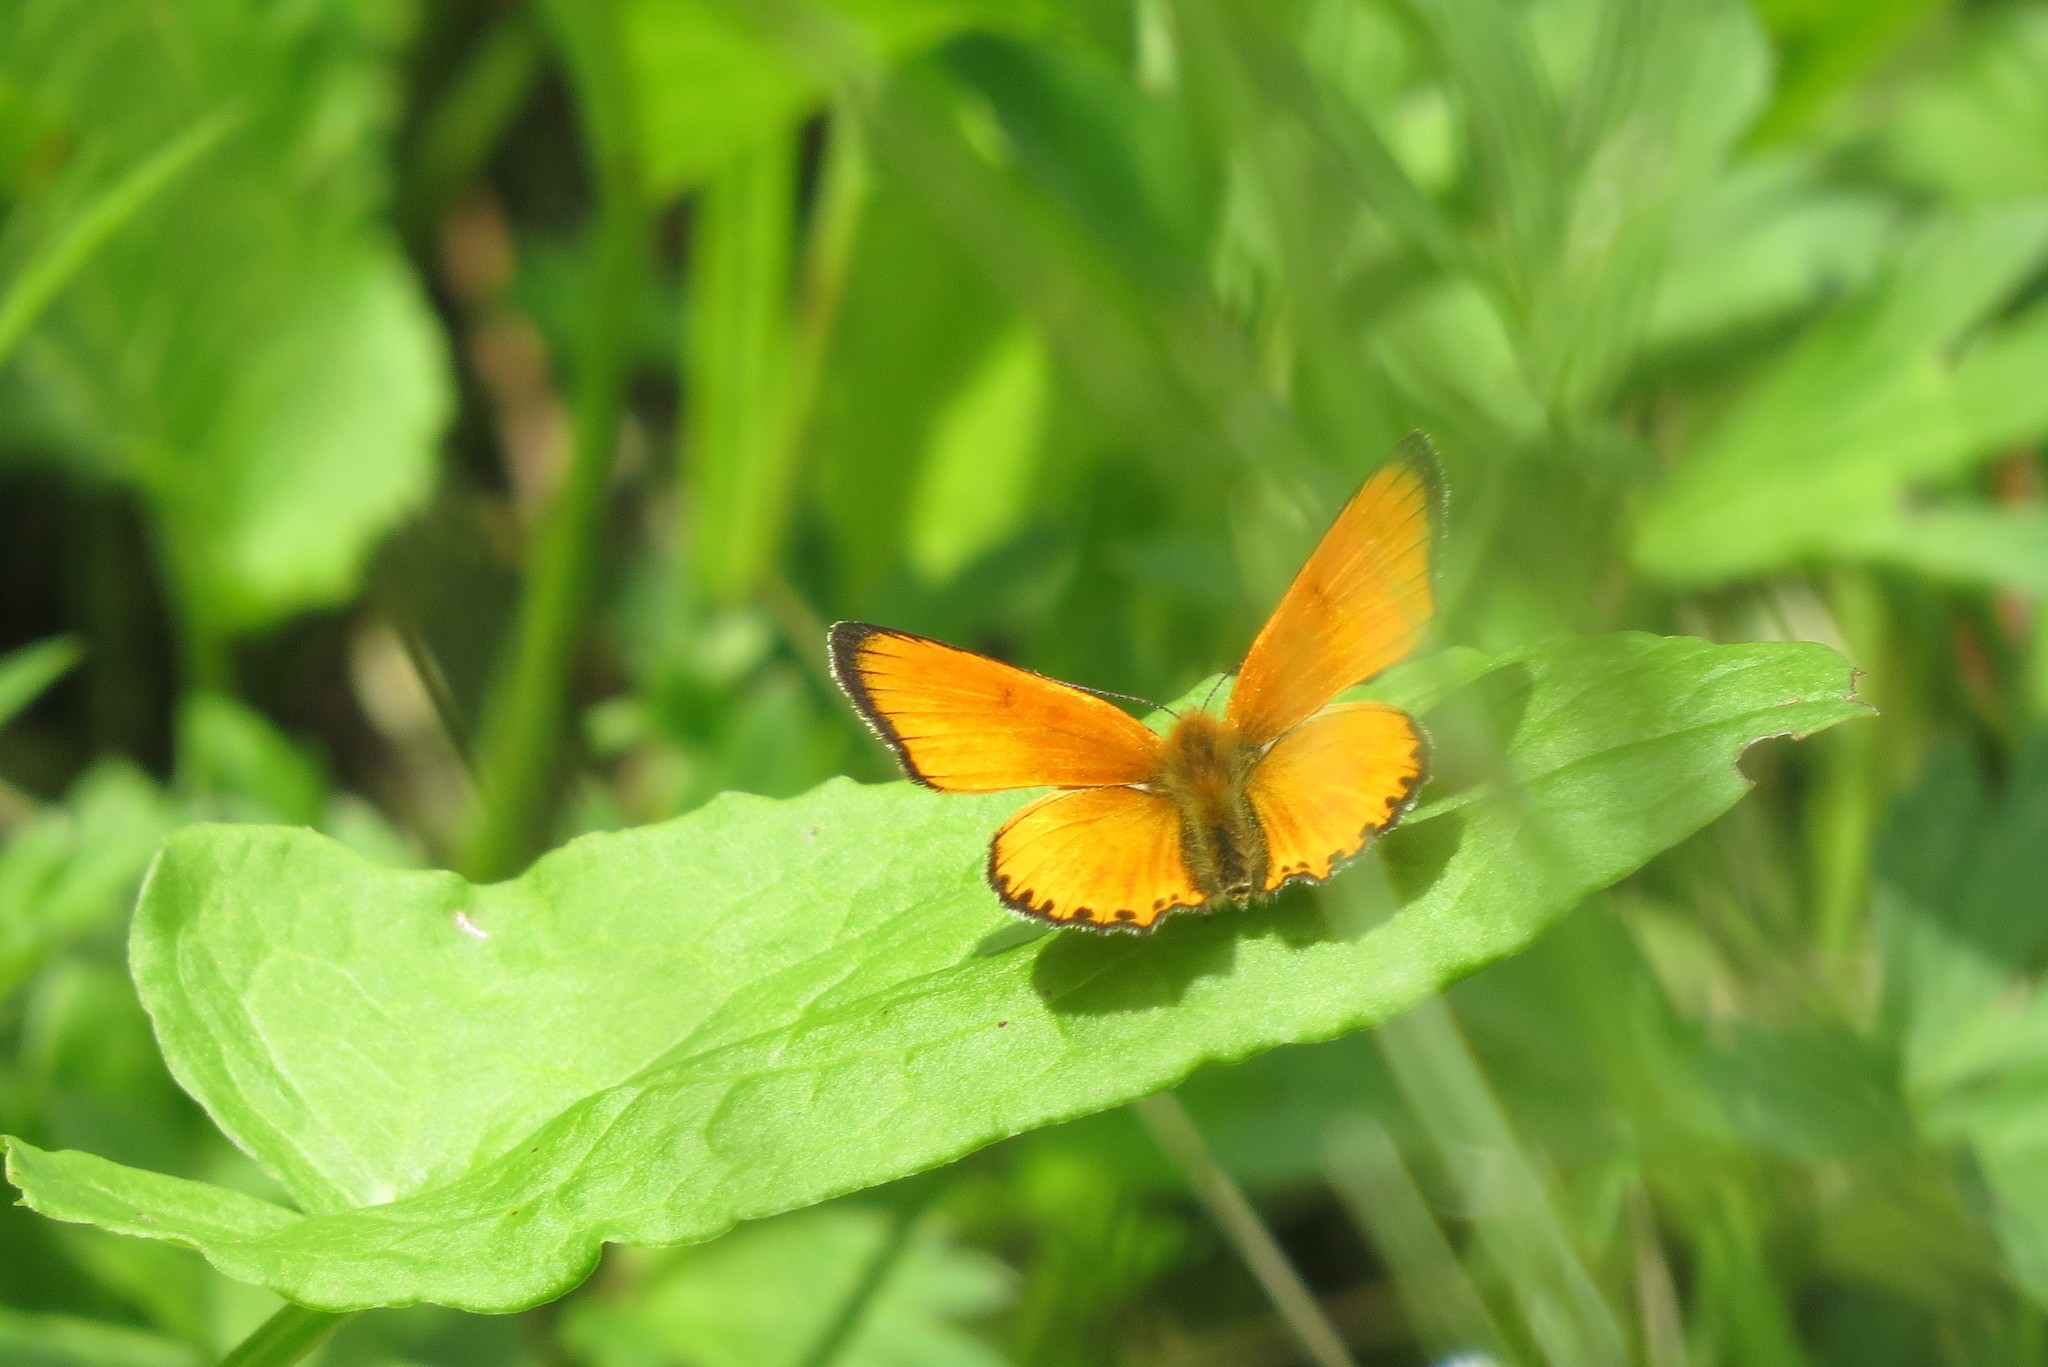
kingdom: Animalia
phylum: Arthropoda
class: Insecta
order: Lepidoptera
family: Lycaenidae
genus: Lycaena
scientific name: Lycaena virgaureae
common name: Scarce copper
